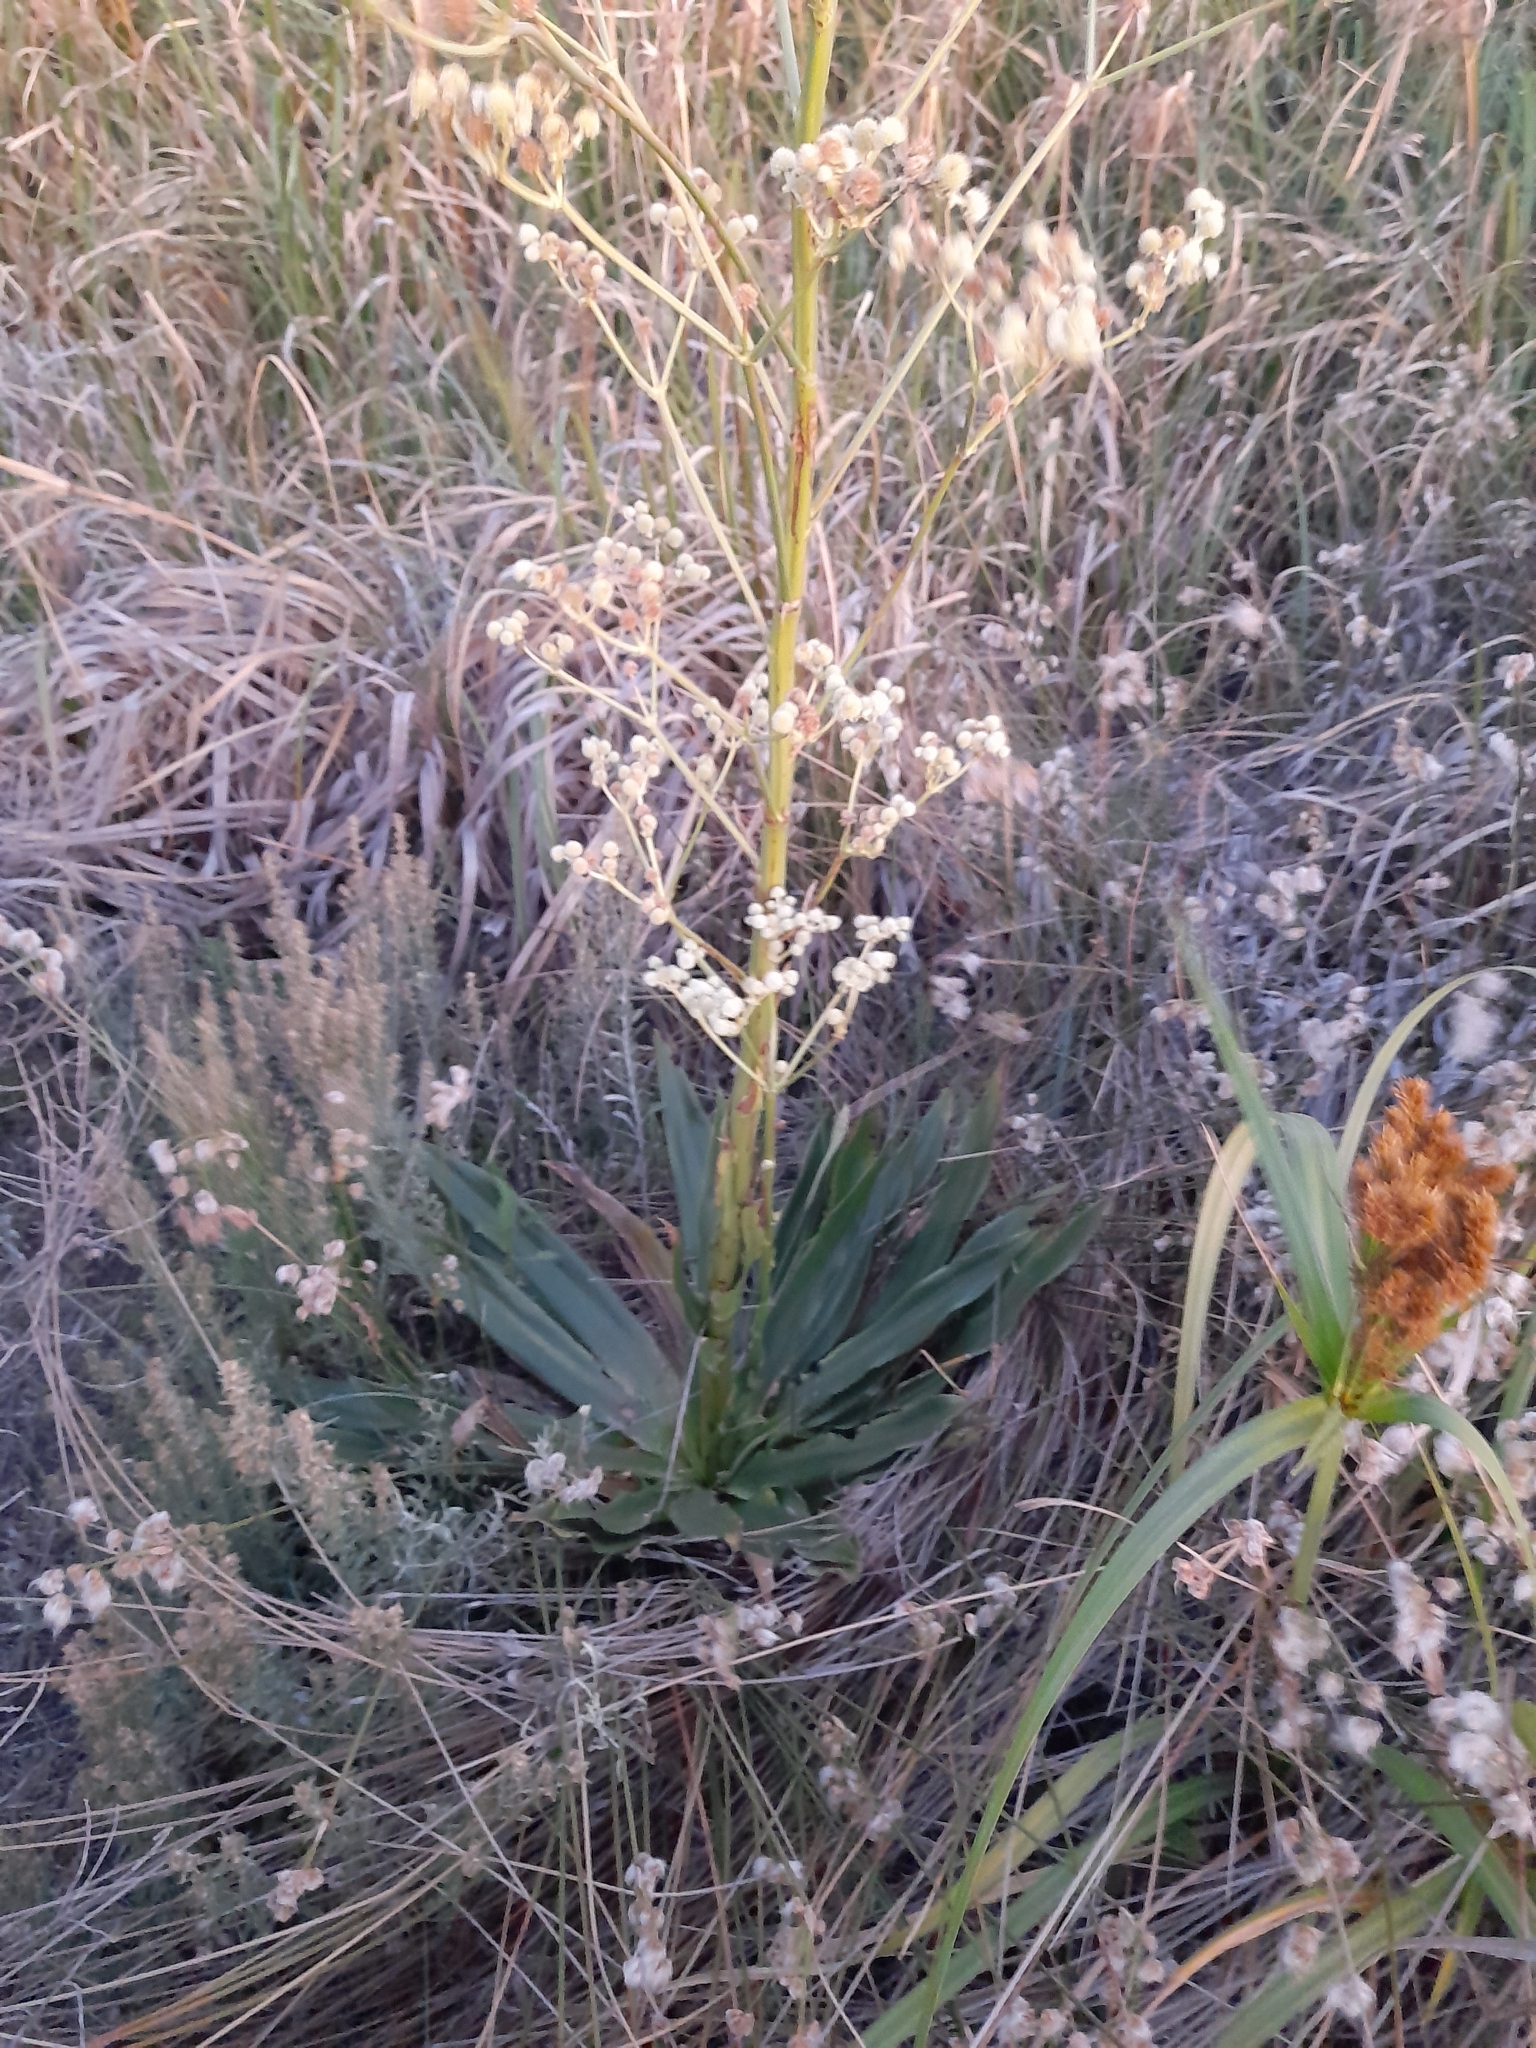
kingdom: Plantae
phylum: Tracheophyta
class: Magnoliopsida
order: Apiales
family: Apiaceae
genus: Eryngium
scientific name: Eryngium elegans
